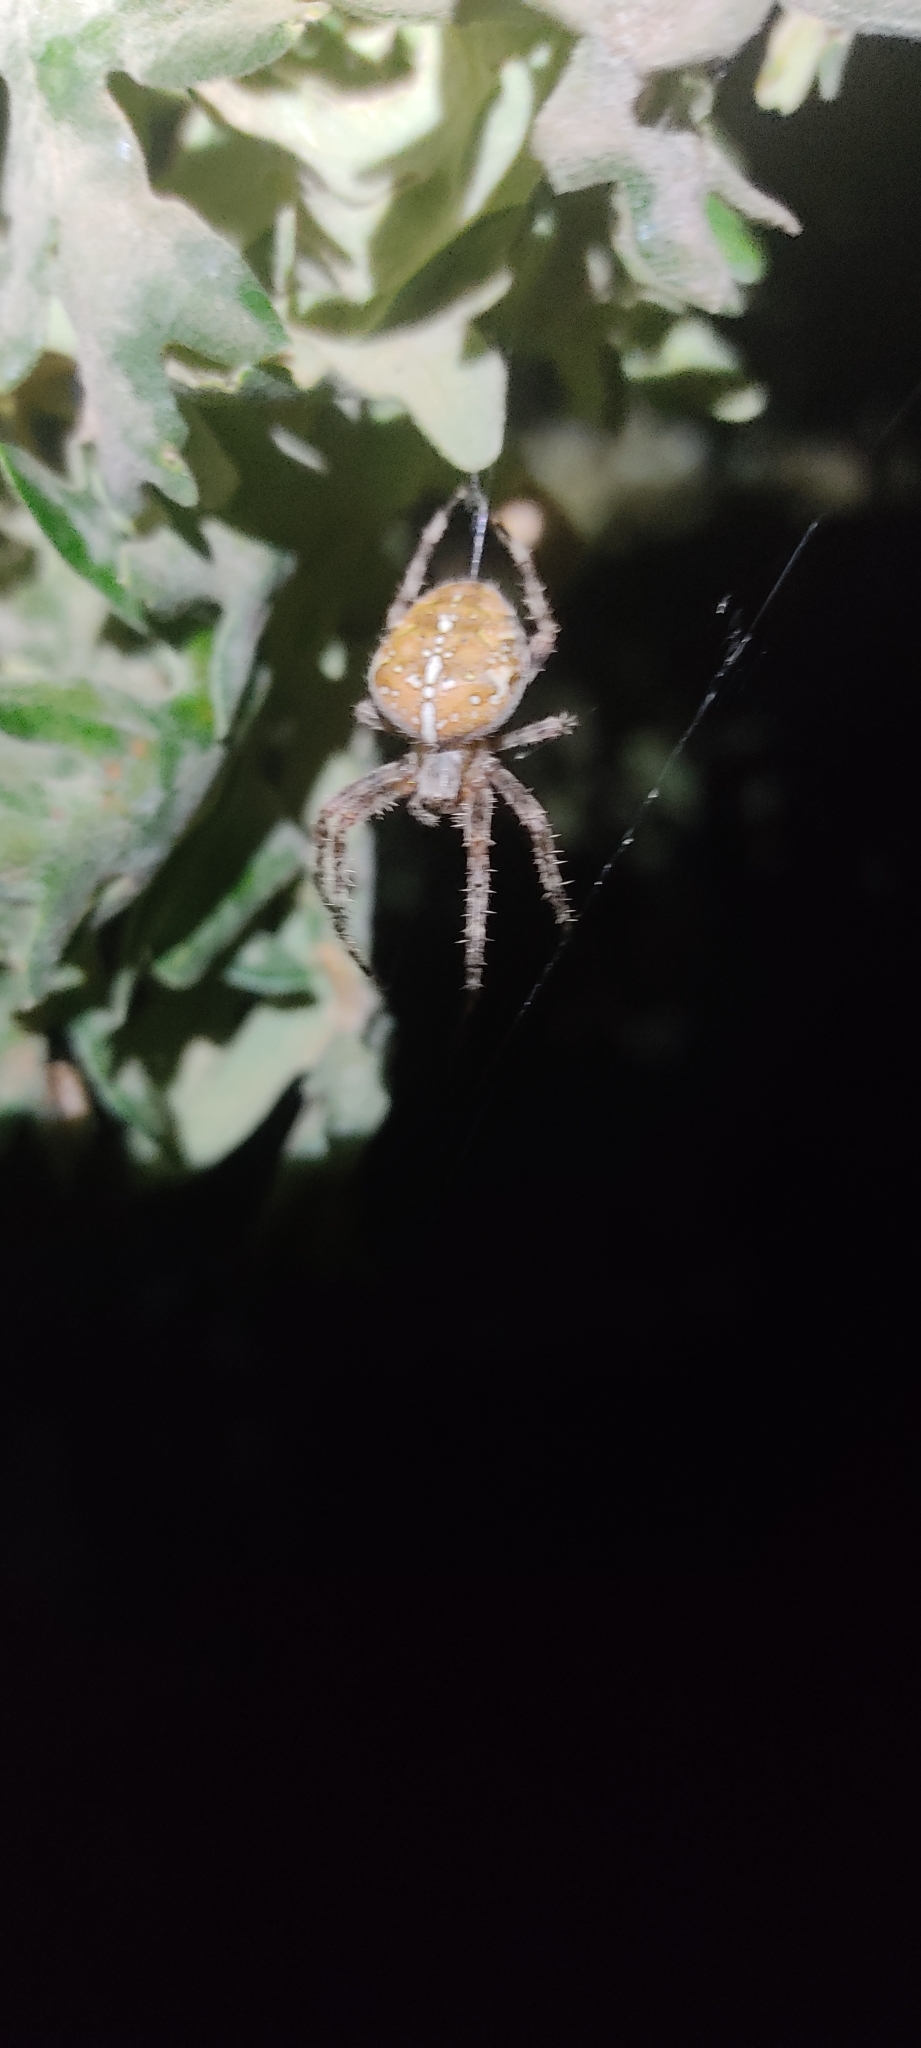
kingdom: Animalia
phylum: Arthropoda
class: Arachnida
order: Araneae
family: Araneidae
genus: Araneus
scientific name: Araneus diadematus
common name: Cross orbweaver
